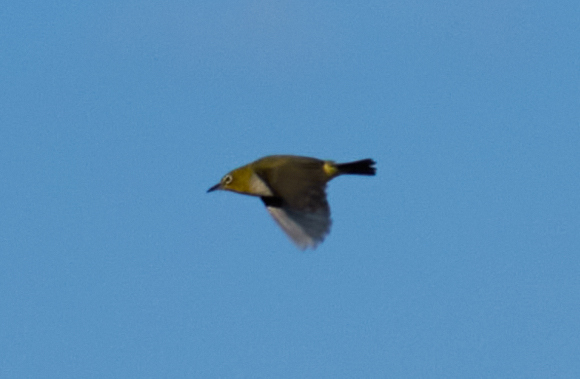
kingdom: Animalia
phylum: Chordata
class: Aves
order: Passeriformes
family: Zosteropidae
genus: Zosterops
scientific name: Zosterops simplex
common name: Swinhoe's white-eye
